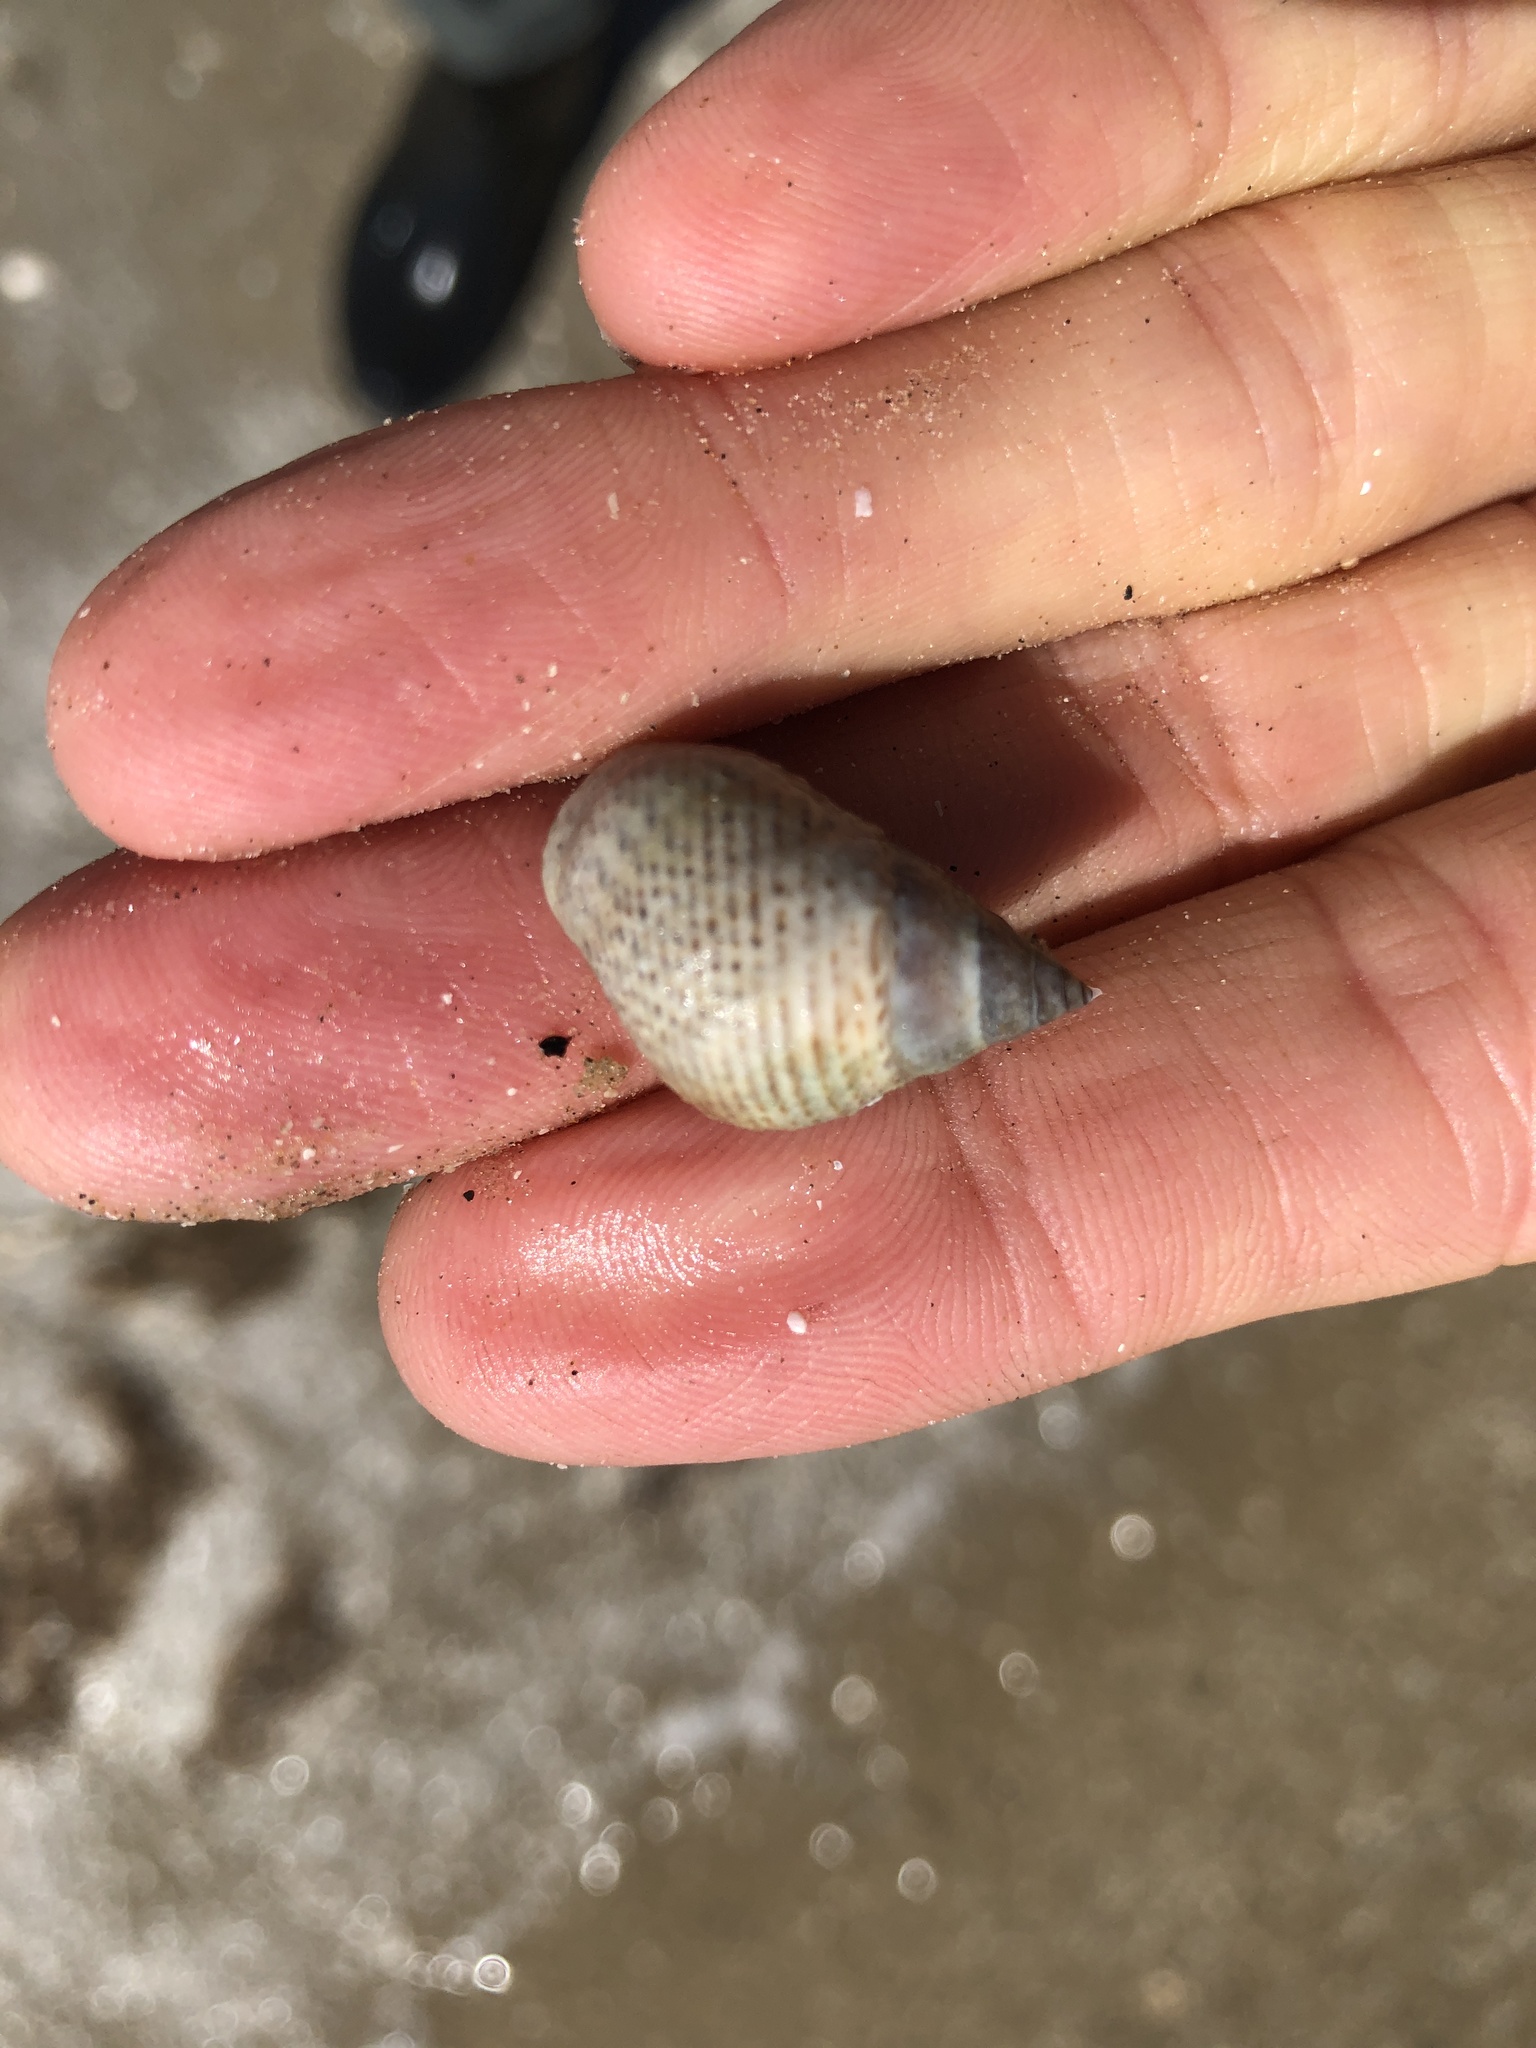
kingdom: Animalia
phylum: Mollusca
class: Gastropoda
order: Littorinimorpha
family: Littorinidae
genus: Littoraria
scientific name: Littoraria irrorata
